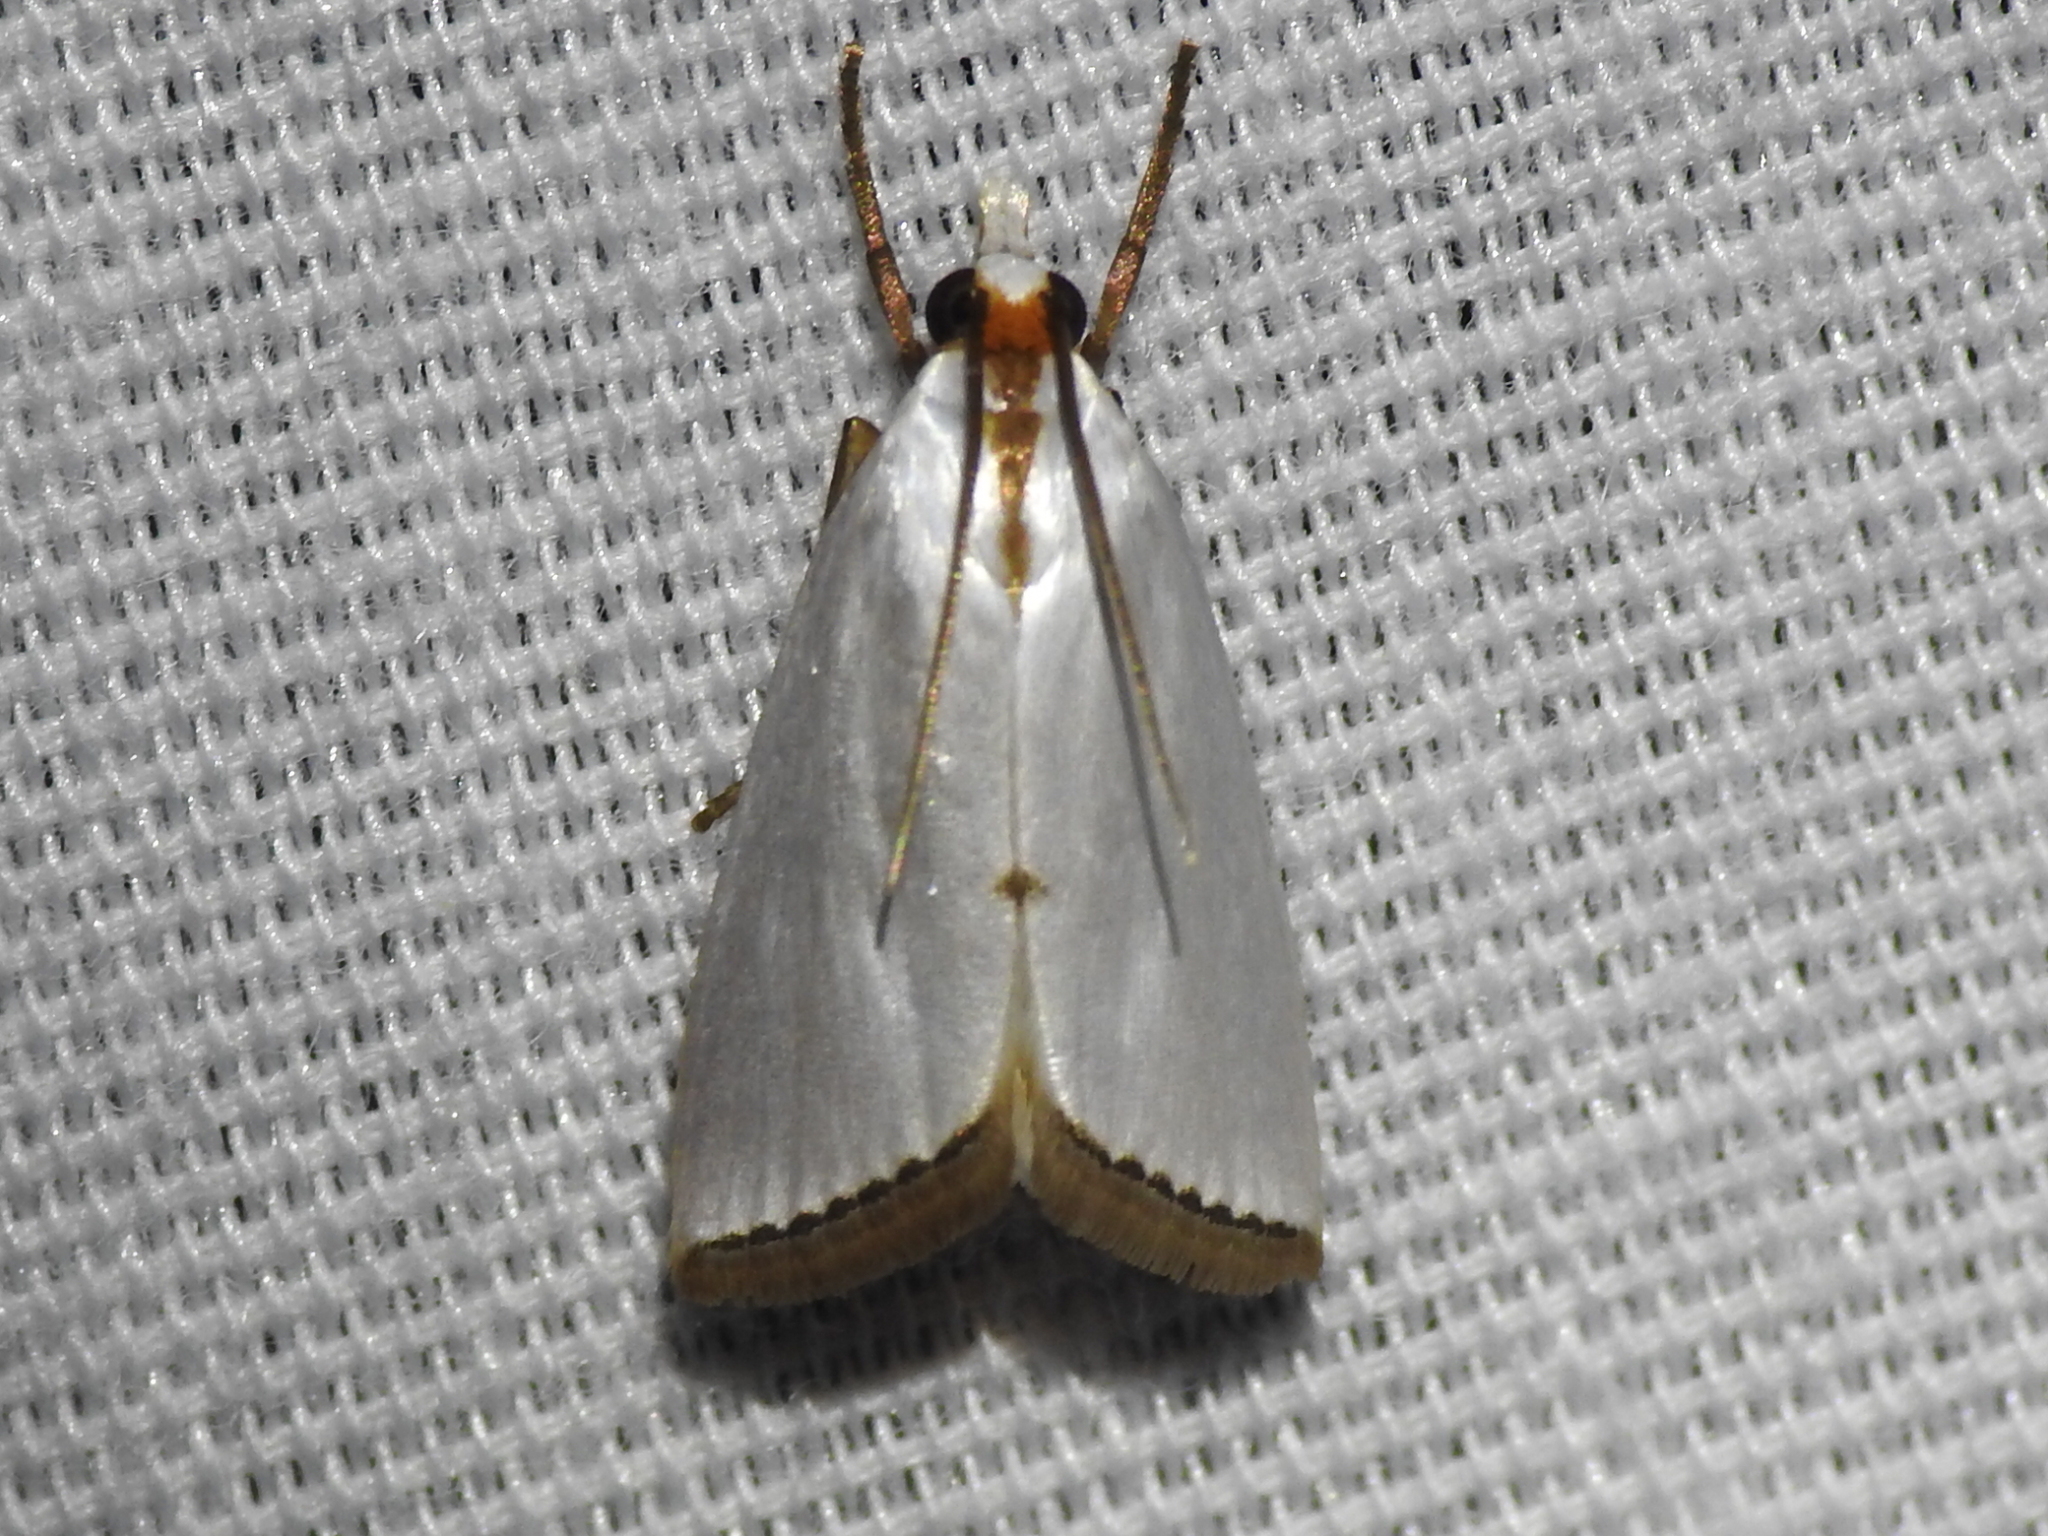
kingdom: Animalia
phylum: Arthropoda
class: Insecta
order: Lepidoptera
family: Crambidae
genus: Argyria
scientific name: Argyria nivalis
